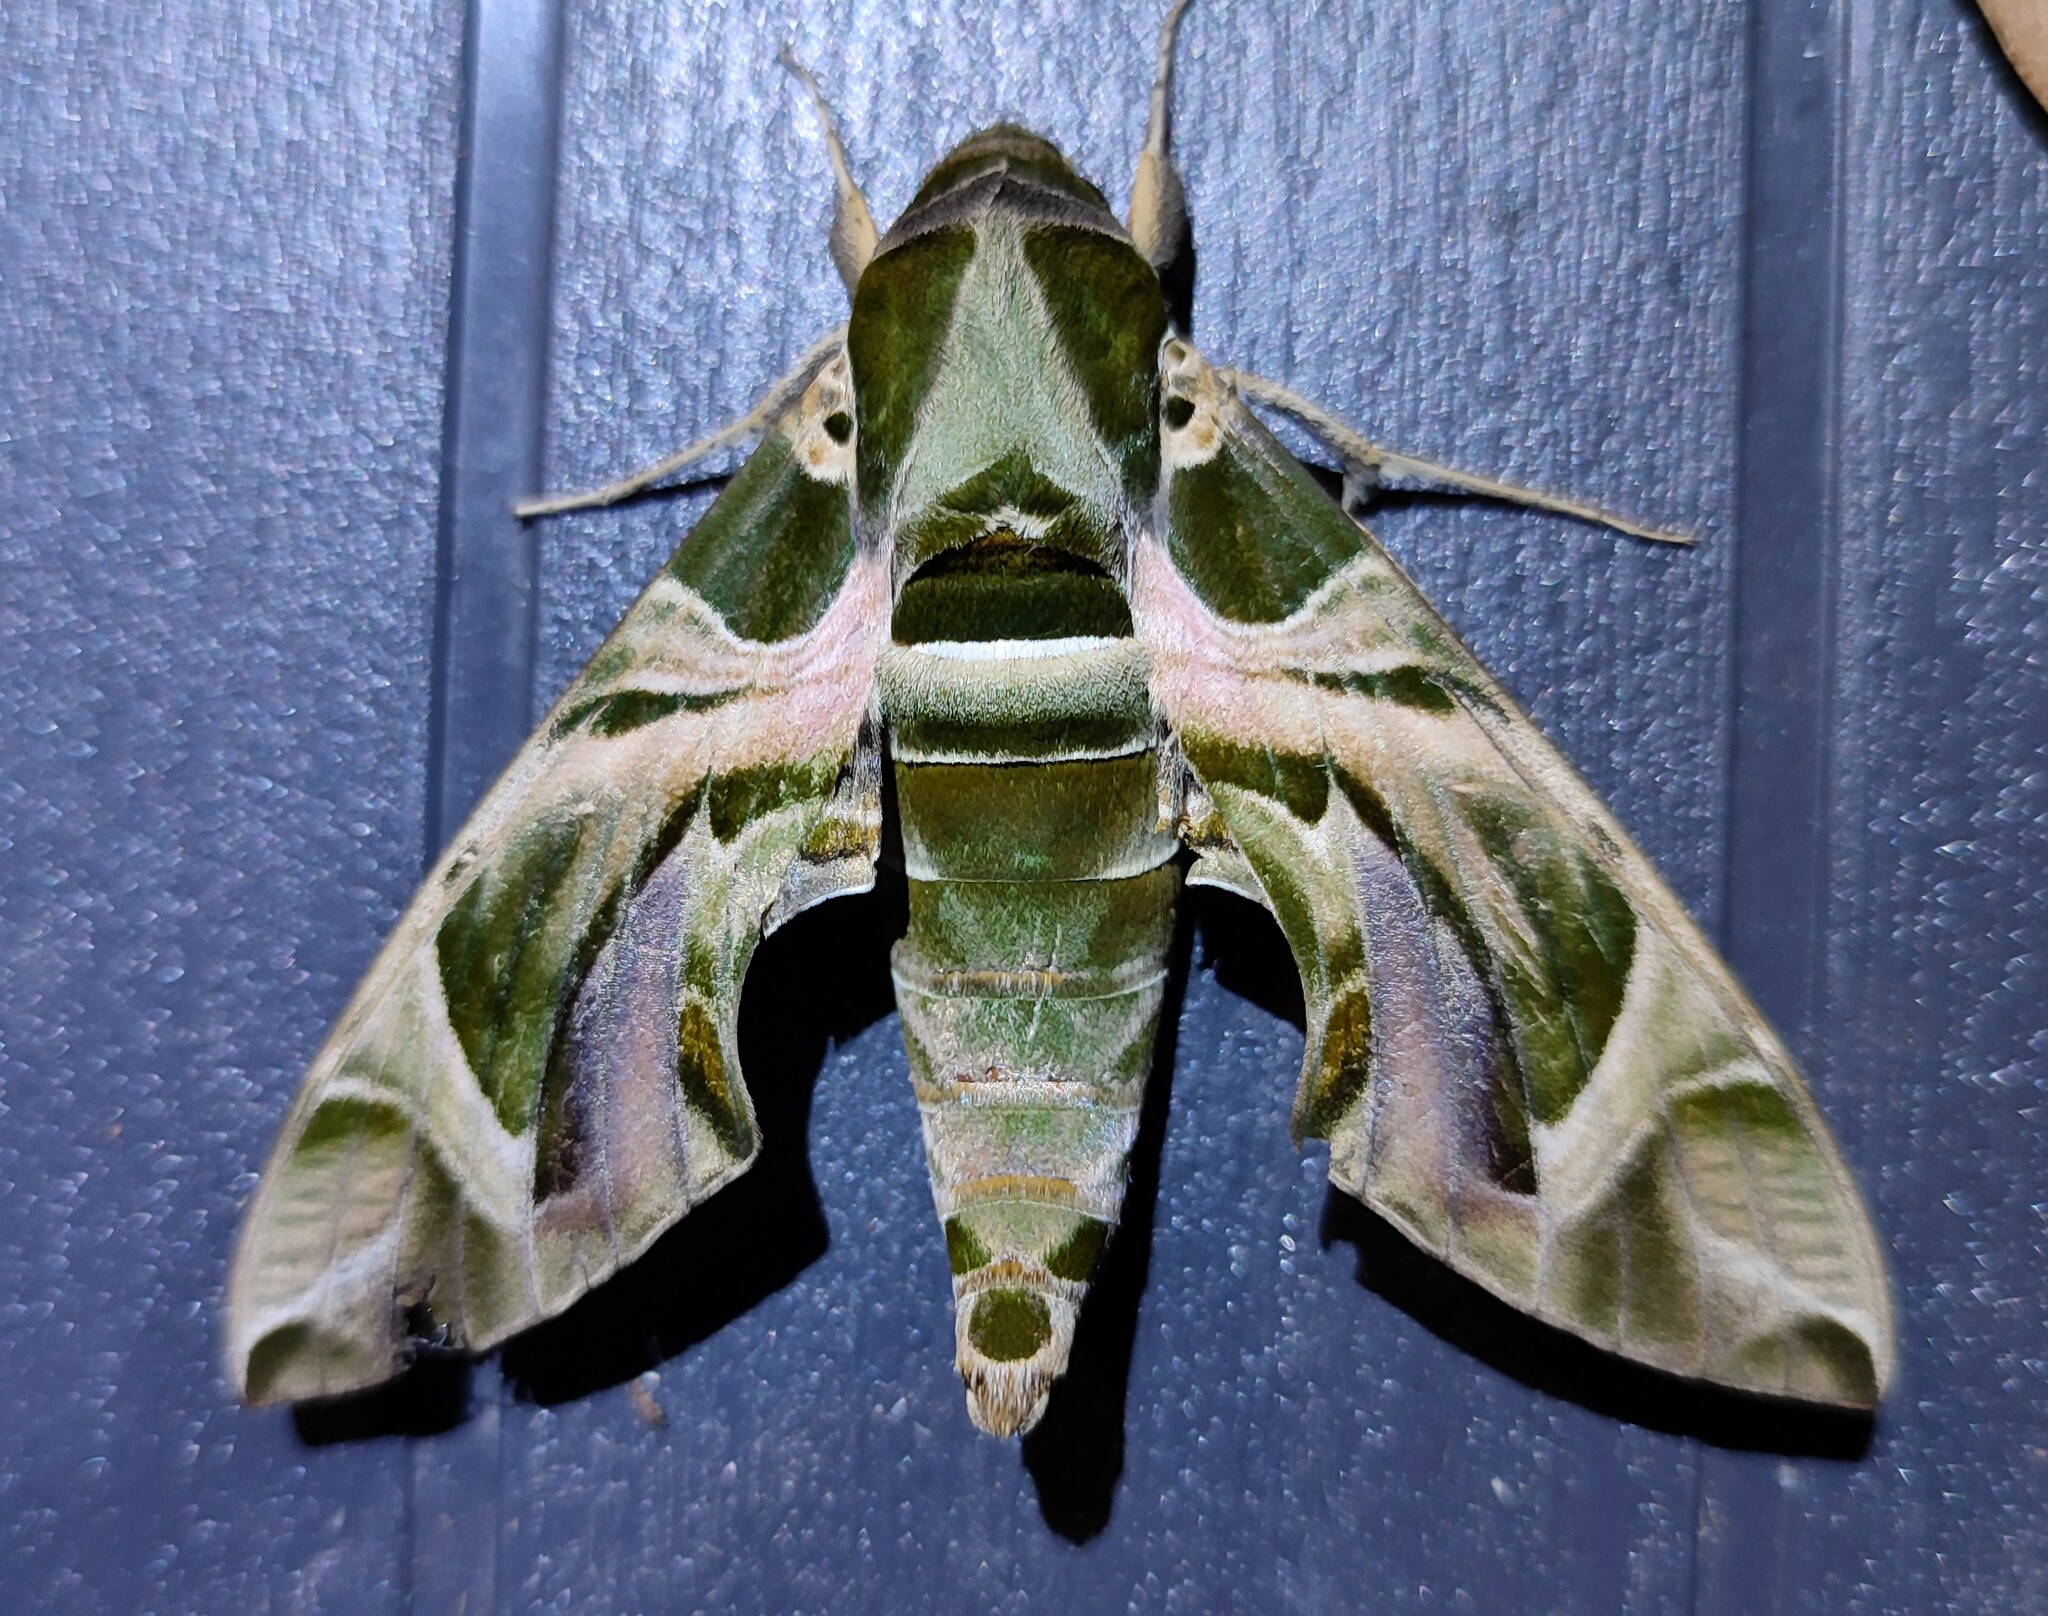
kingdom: Animalia
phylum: Arthropoda
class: Insecta
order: Lepidoptera
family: Sphingidae
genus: Daphnis
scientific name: Daphnis nerii
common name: Oleander hawk-moth
